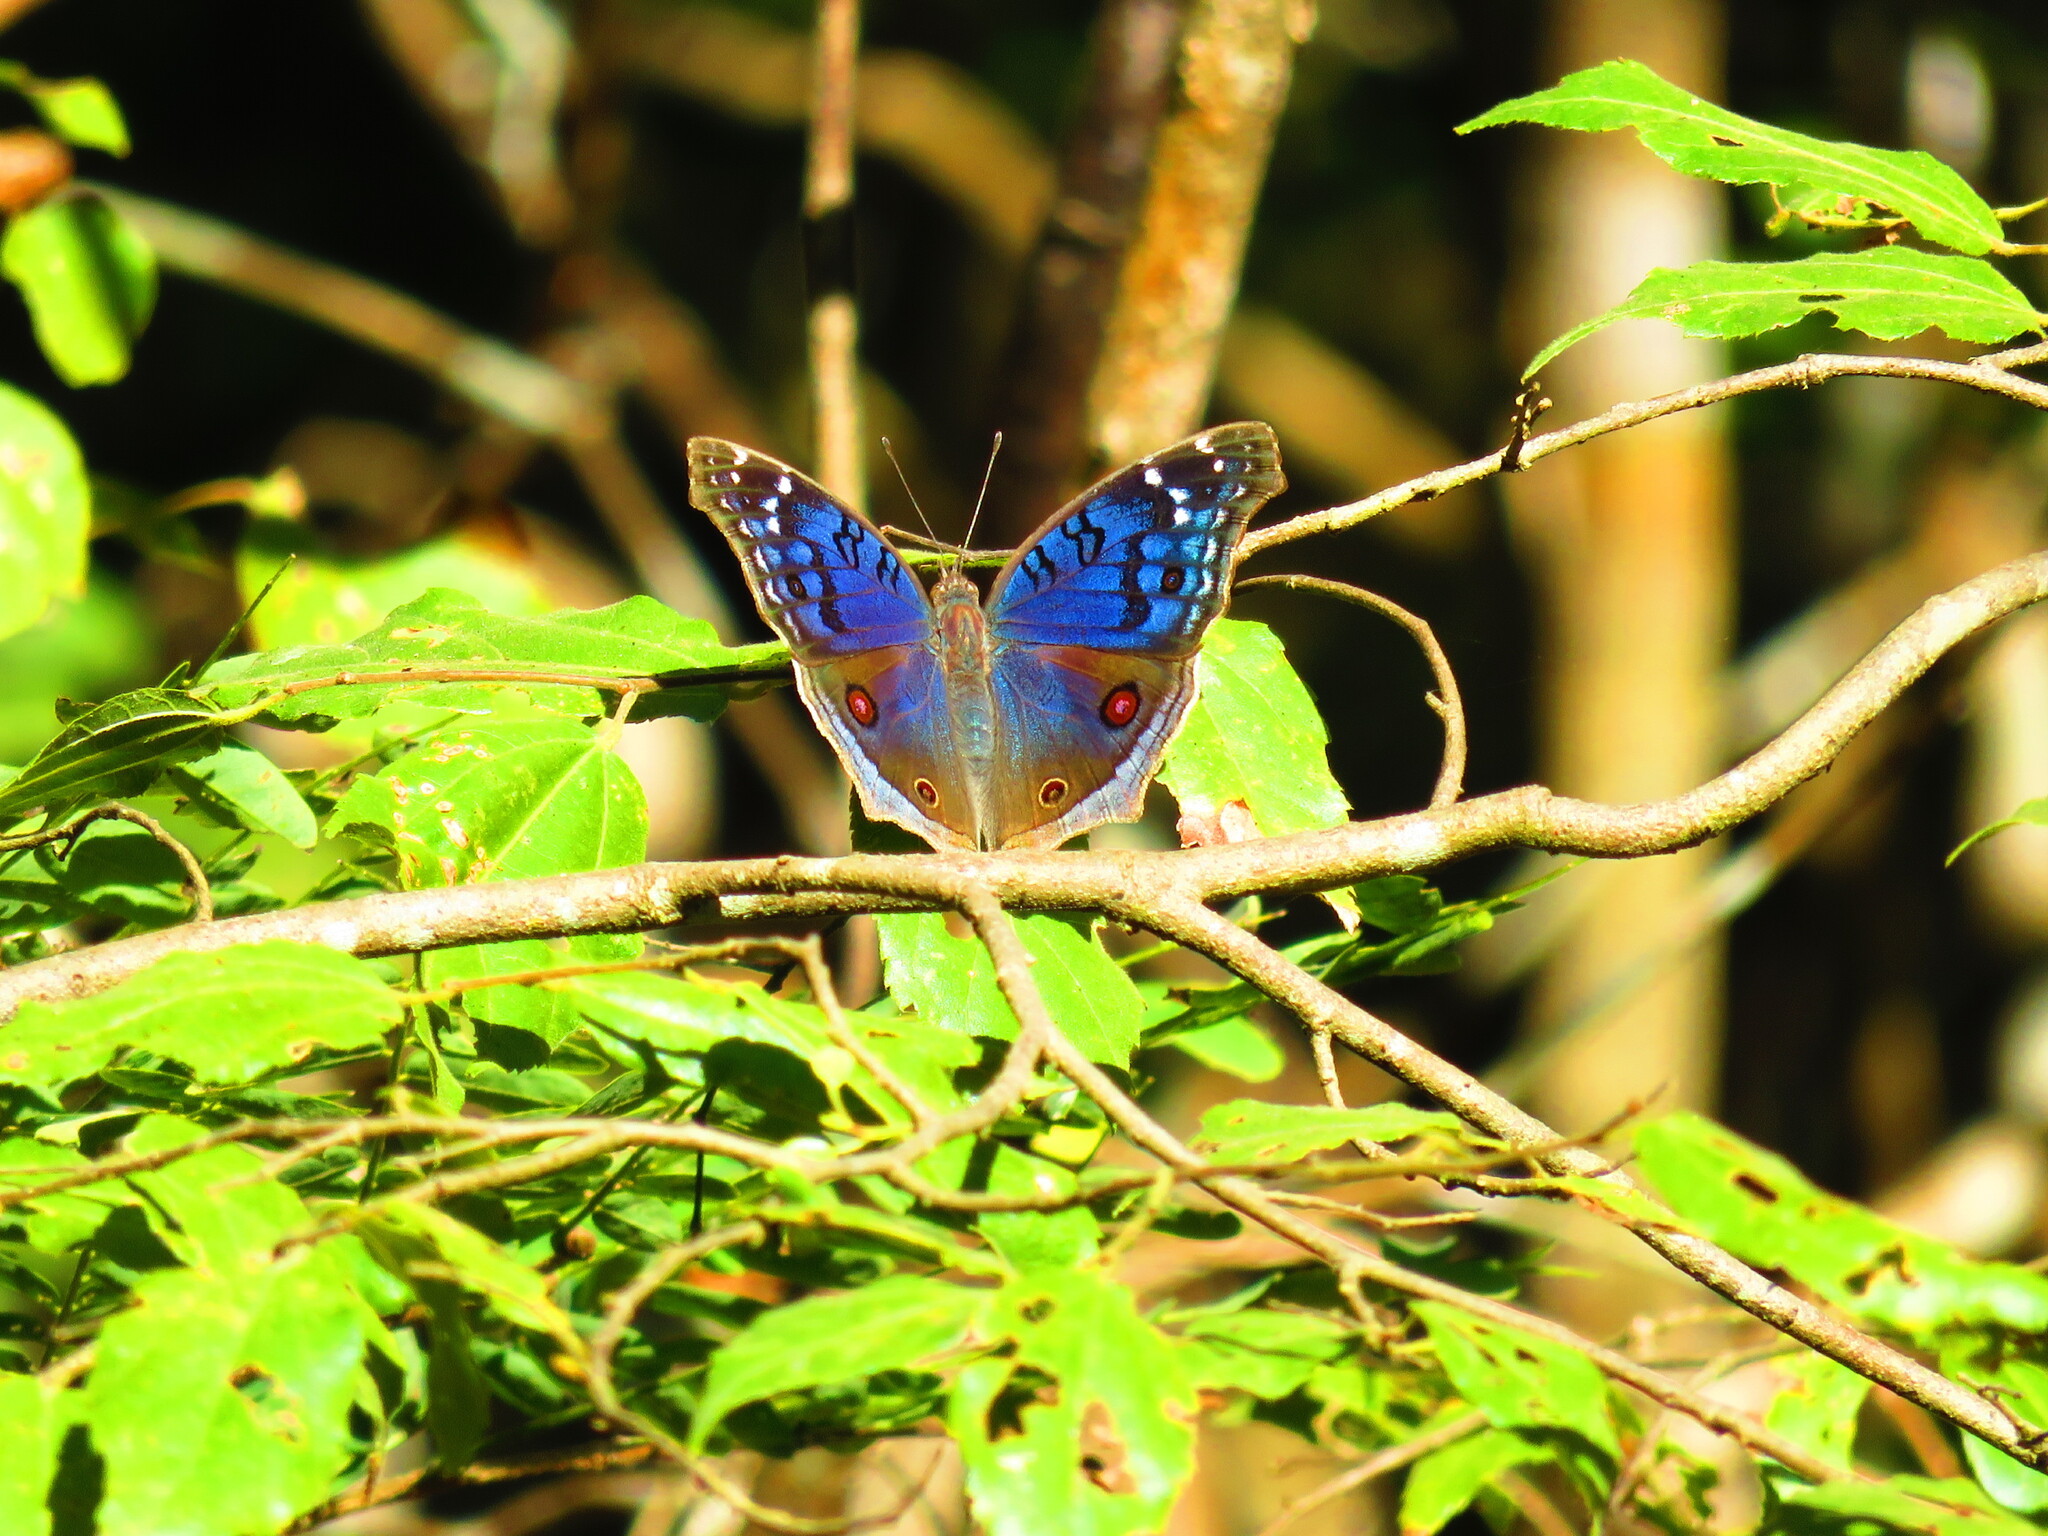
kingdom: Animalia
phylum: Arthropoda
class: Insecta
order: Lepidoptera
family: Nymphalidae
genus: Junonia
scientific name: Junonia rhadama
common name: Royal blue pansy
